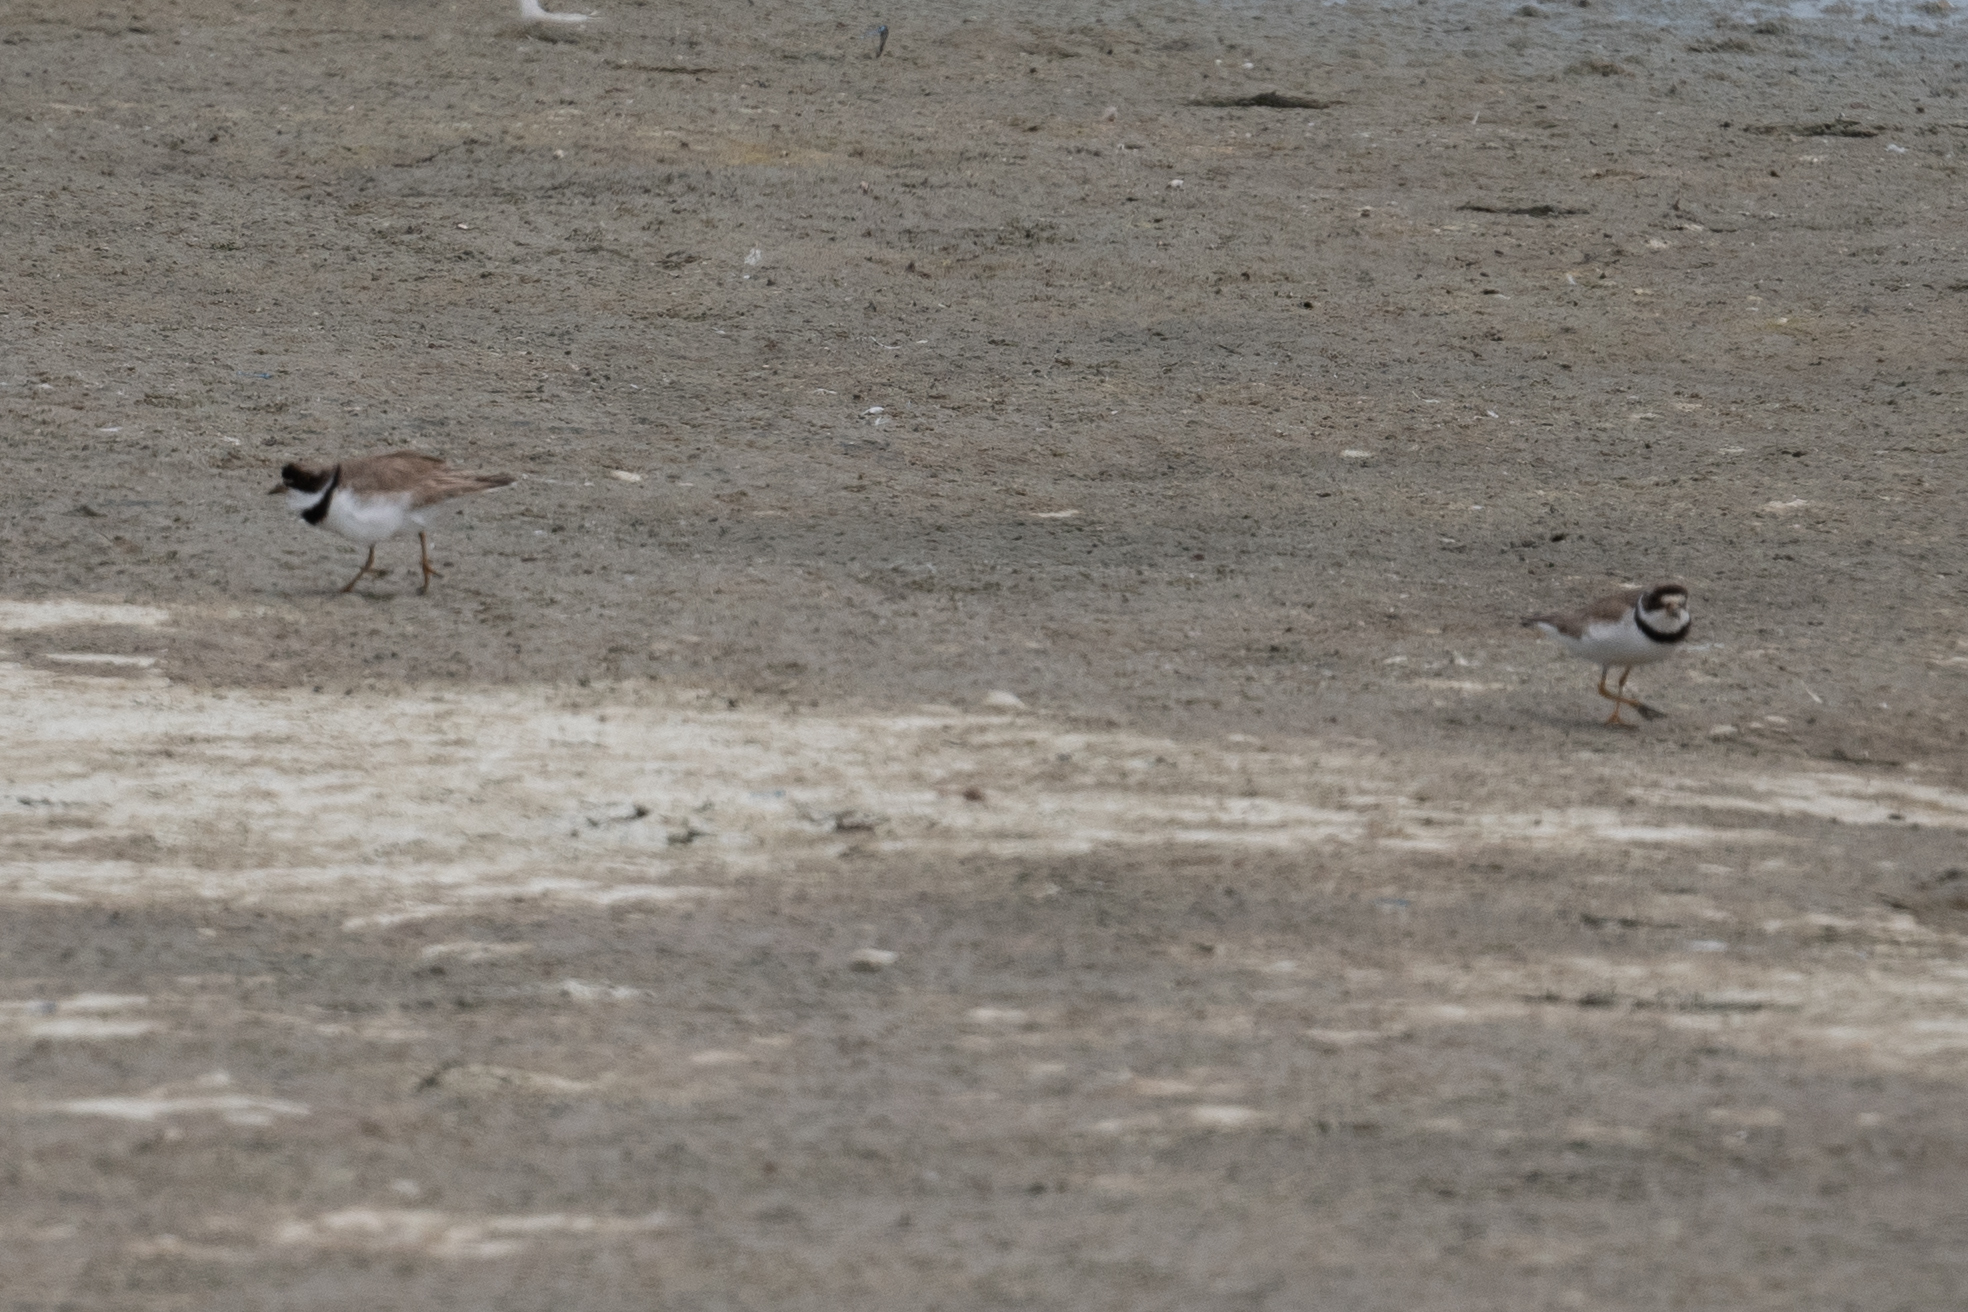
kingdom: Animalia
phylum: Chordata
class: Aves
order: Charadriiformes
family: Charadriidae
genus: Charadrius
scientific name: Charadrius semipalmatus
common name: Semipalmated plover
